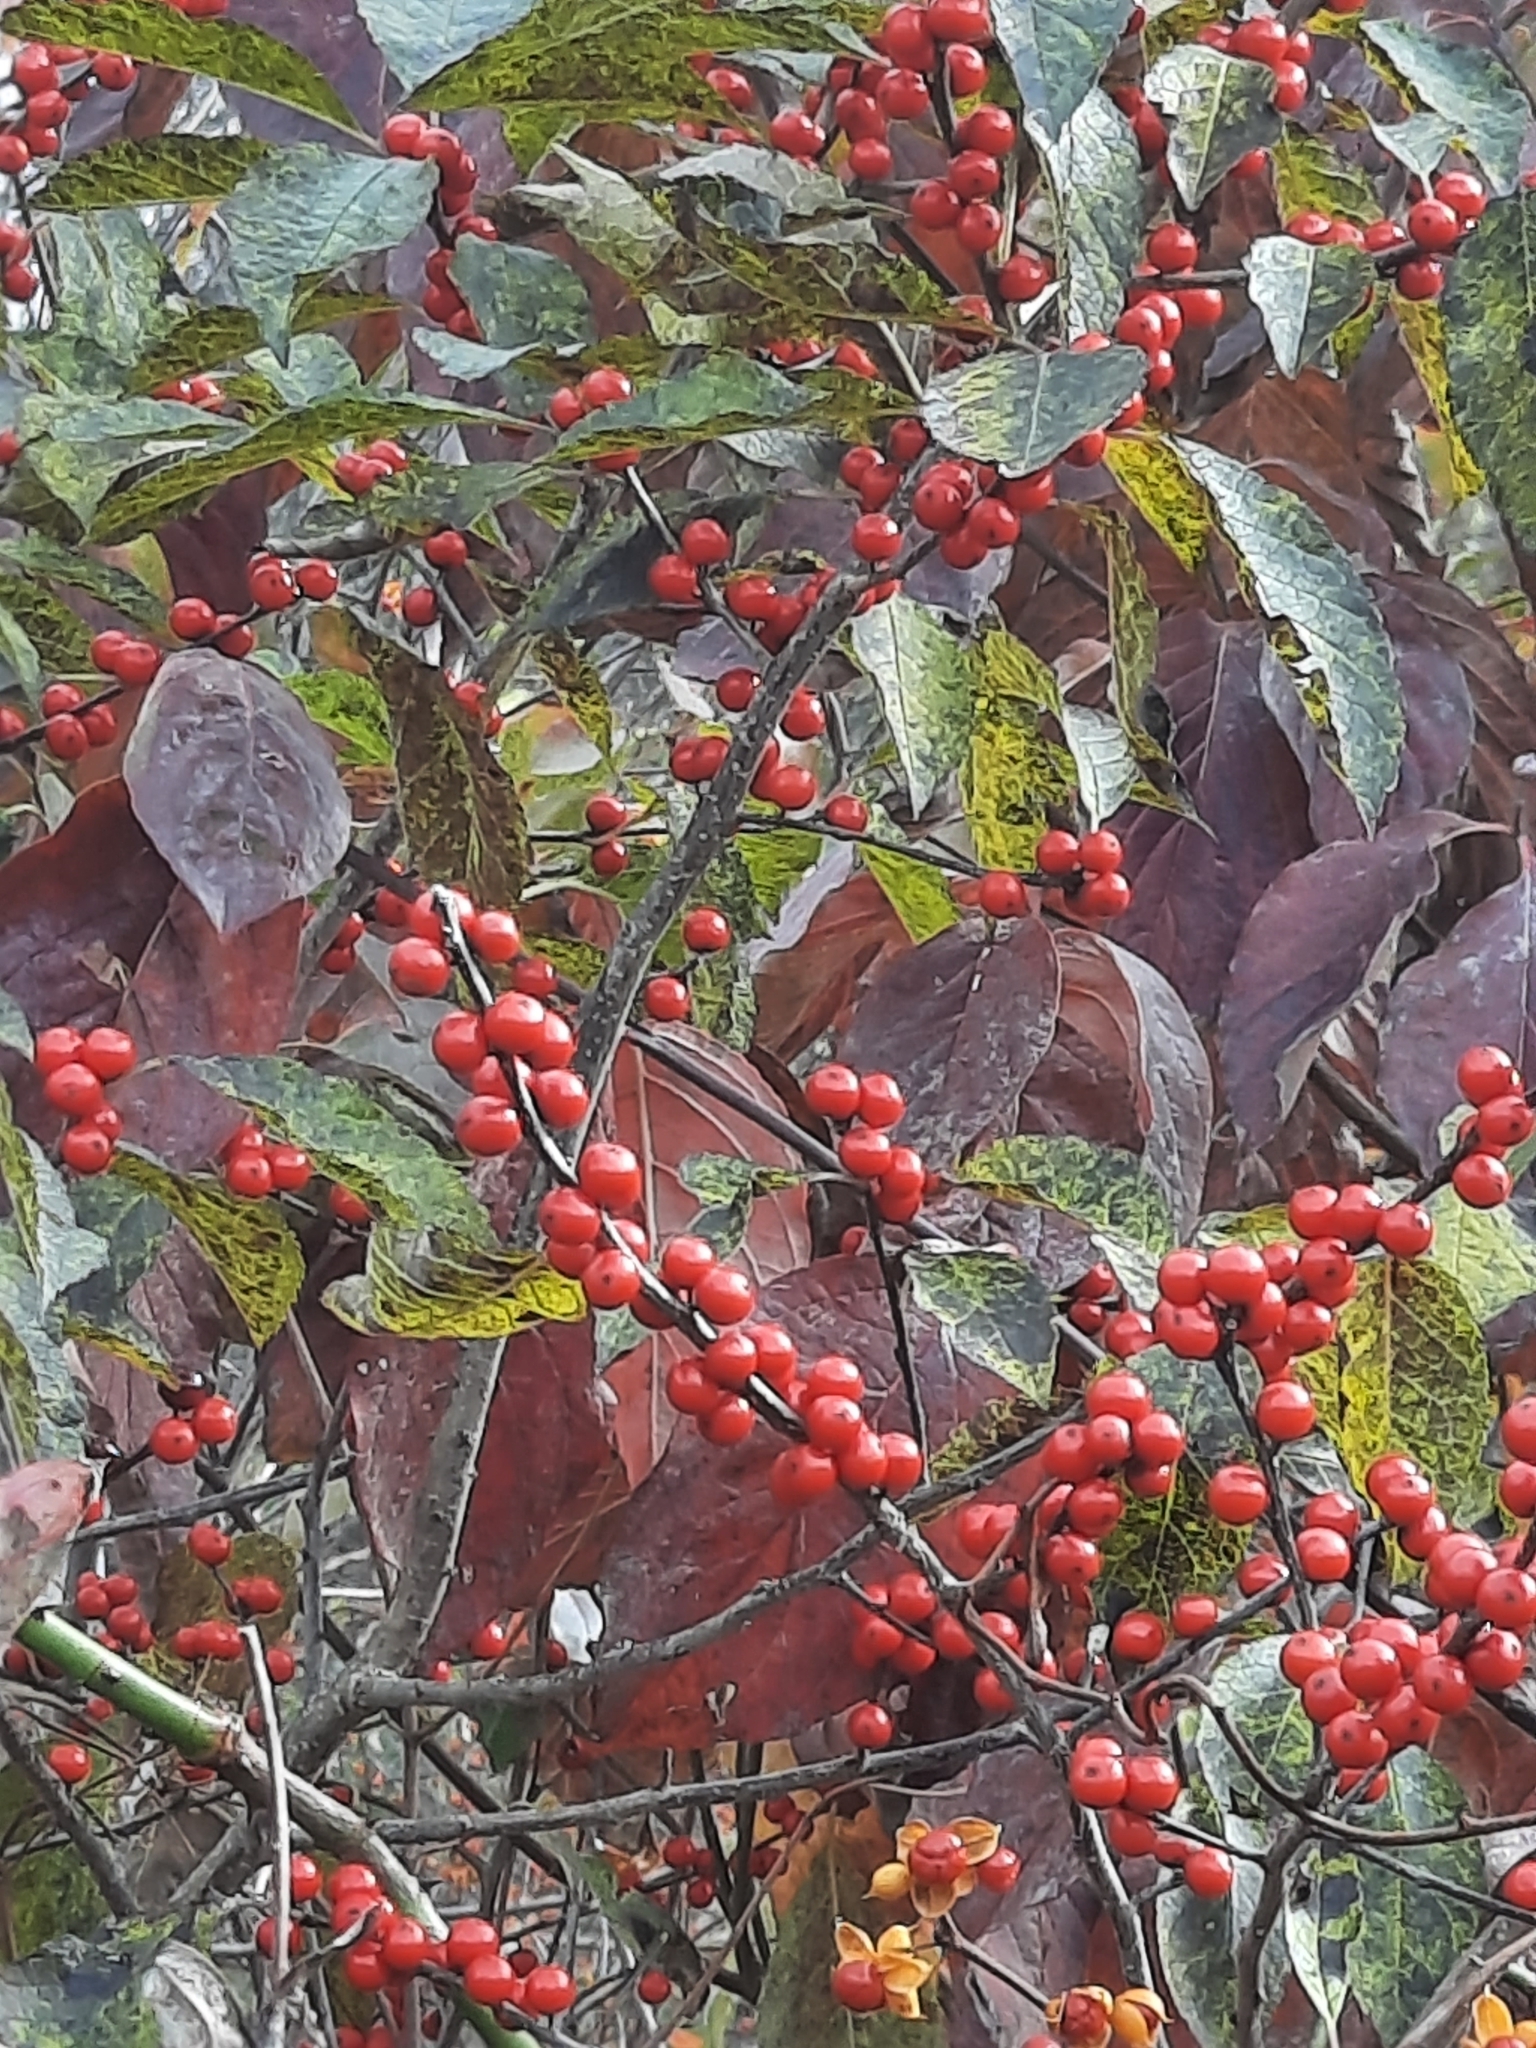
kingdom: Plantae
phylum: Tracheophyta
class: Magnoliopsida
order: Aquifoliales
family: Aquifoliaceae
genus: Ilex
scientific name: Ilex verticillata
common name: Virginia winterberry
